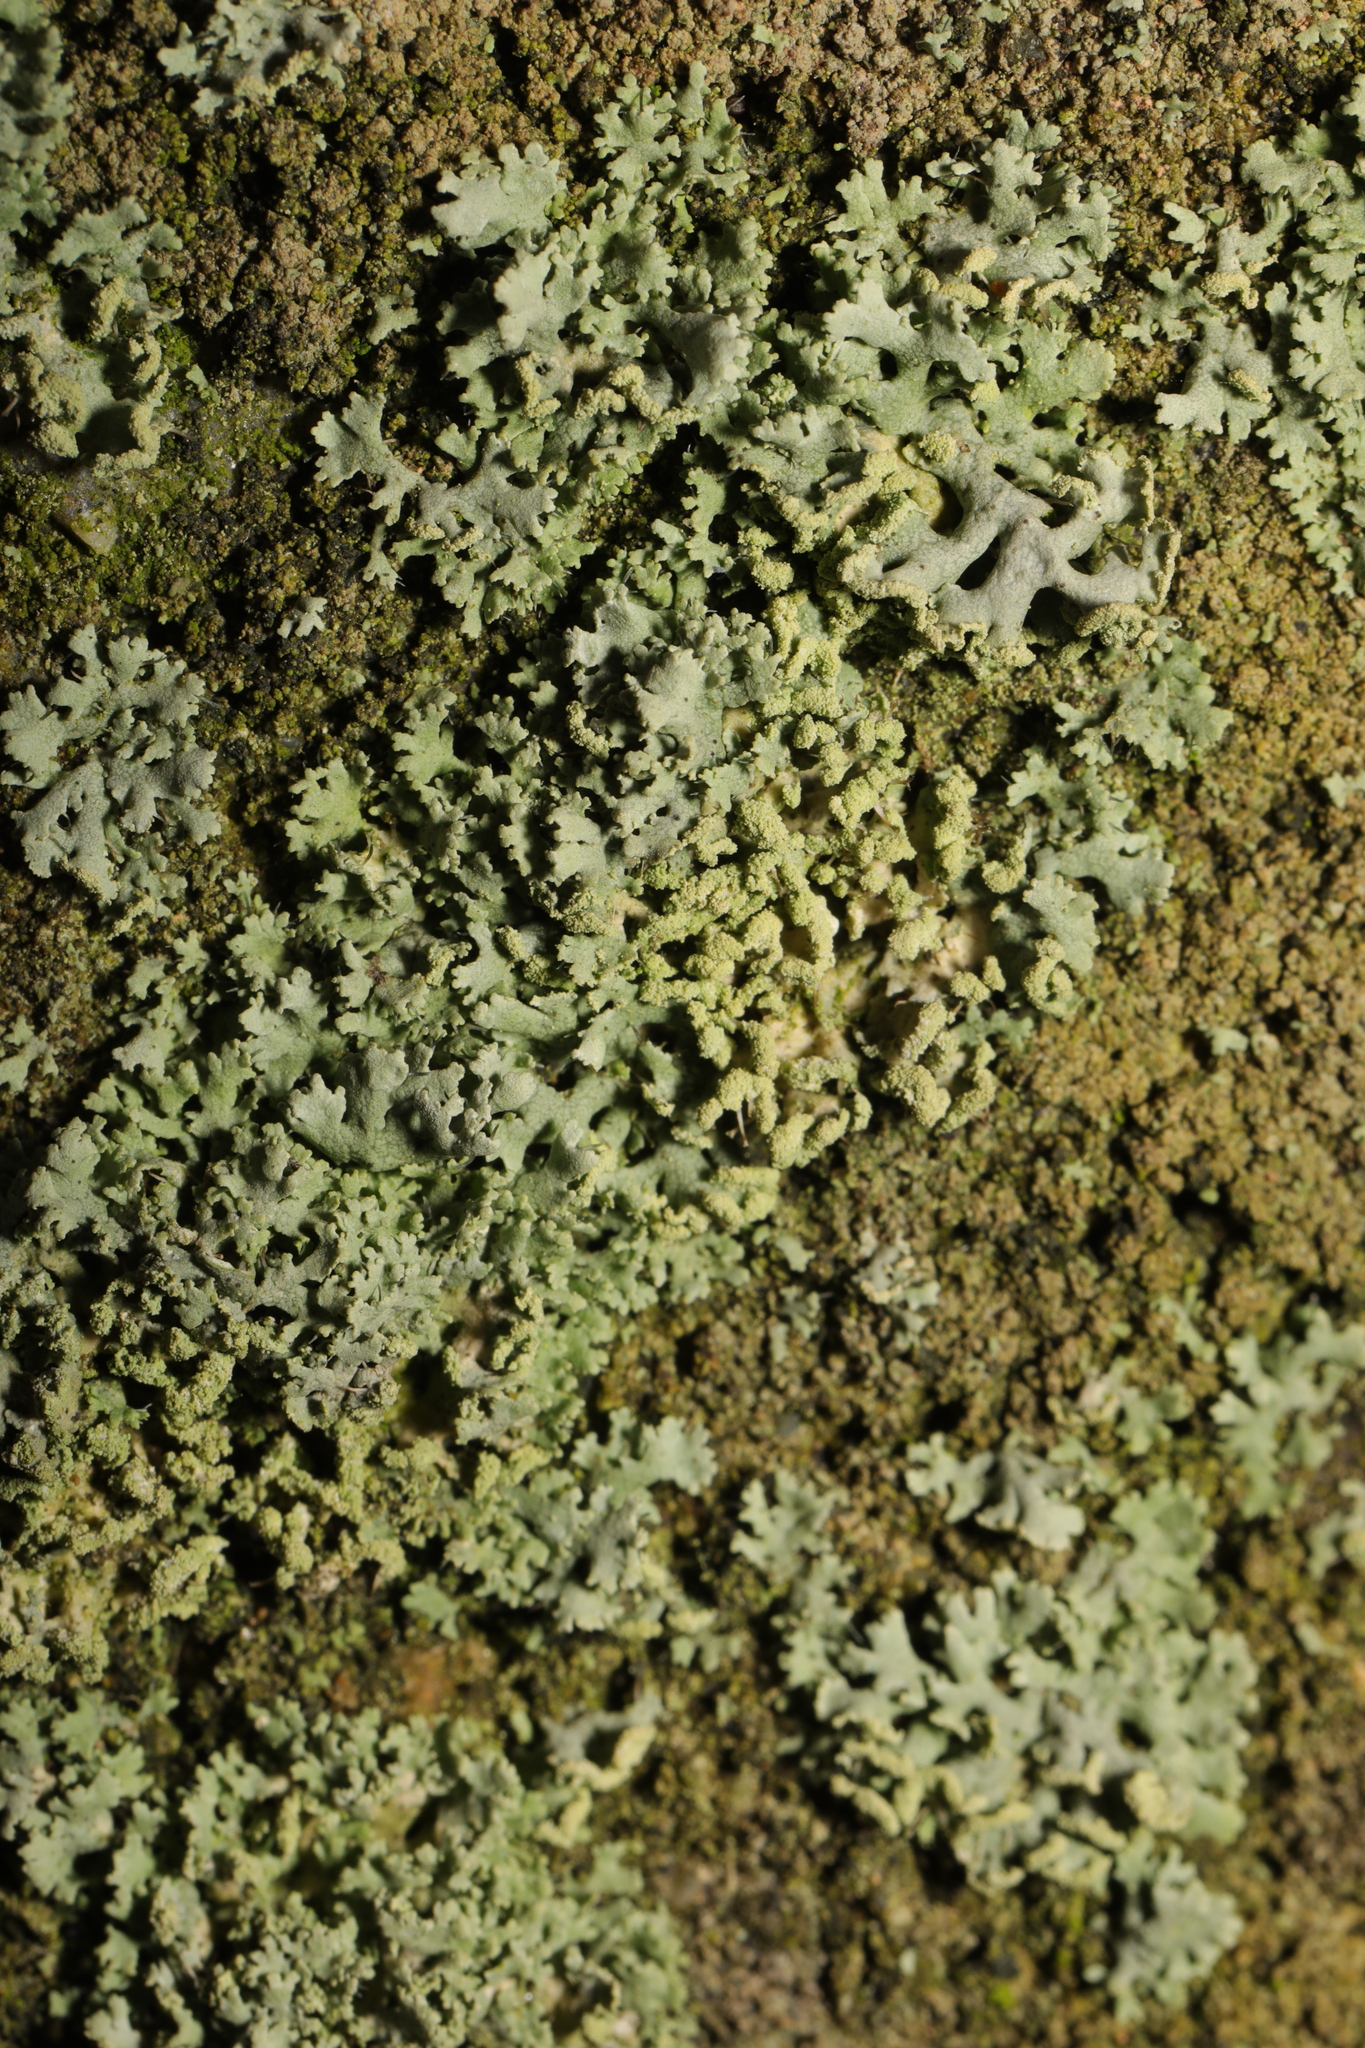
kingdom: Fungi
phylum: Ascomycota
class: Lecanoromycetes
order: Caliciales
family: Physciaceae
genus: Physcia
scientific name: Physcia tenella
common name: Fringed rosette lichen
